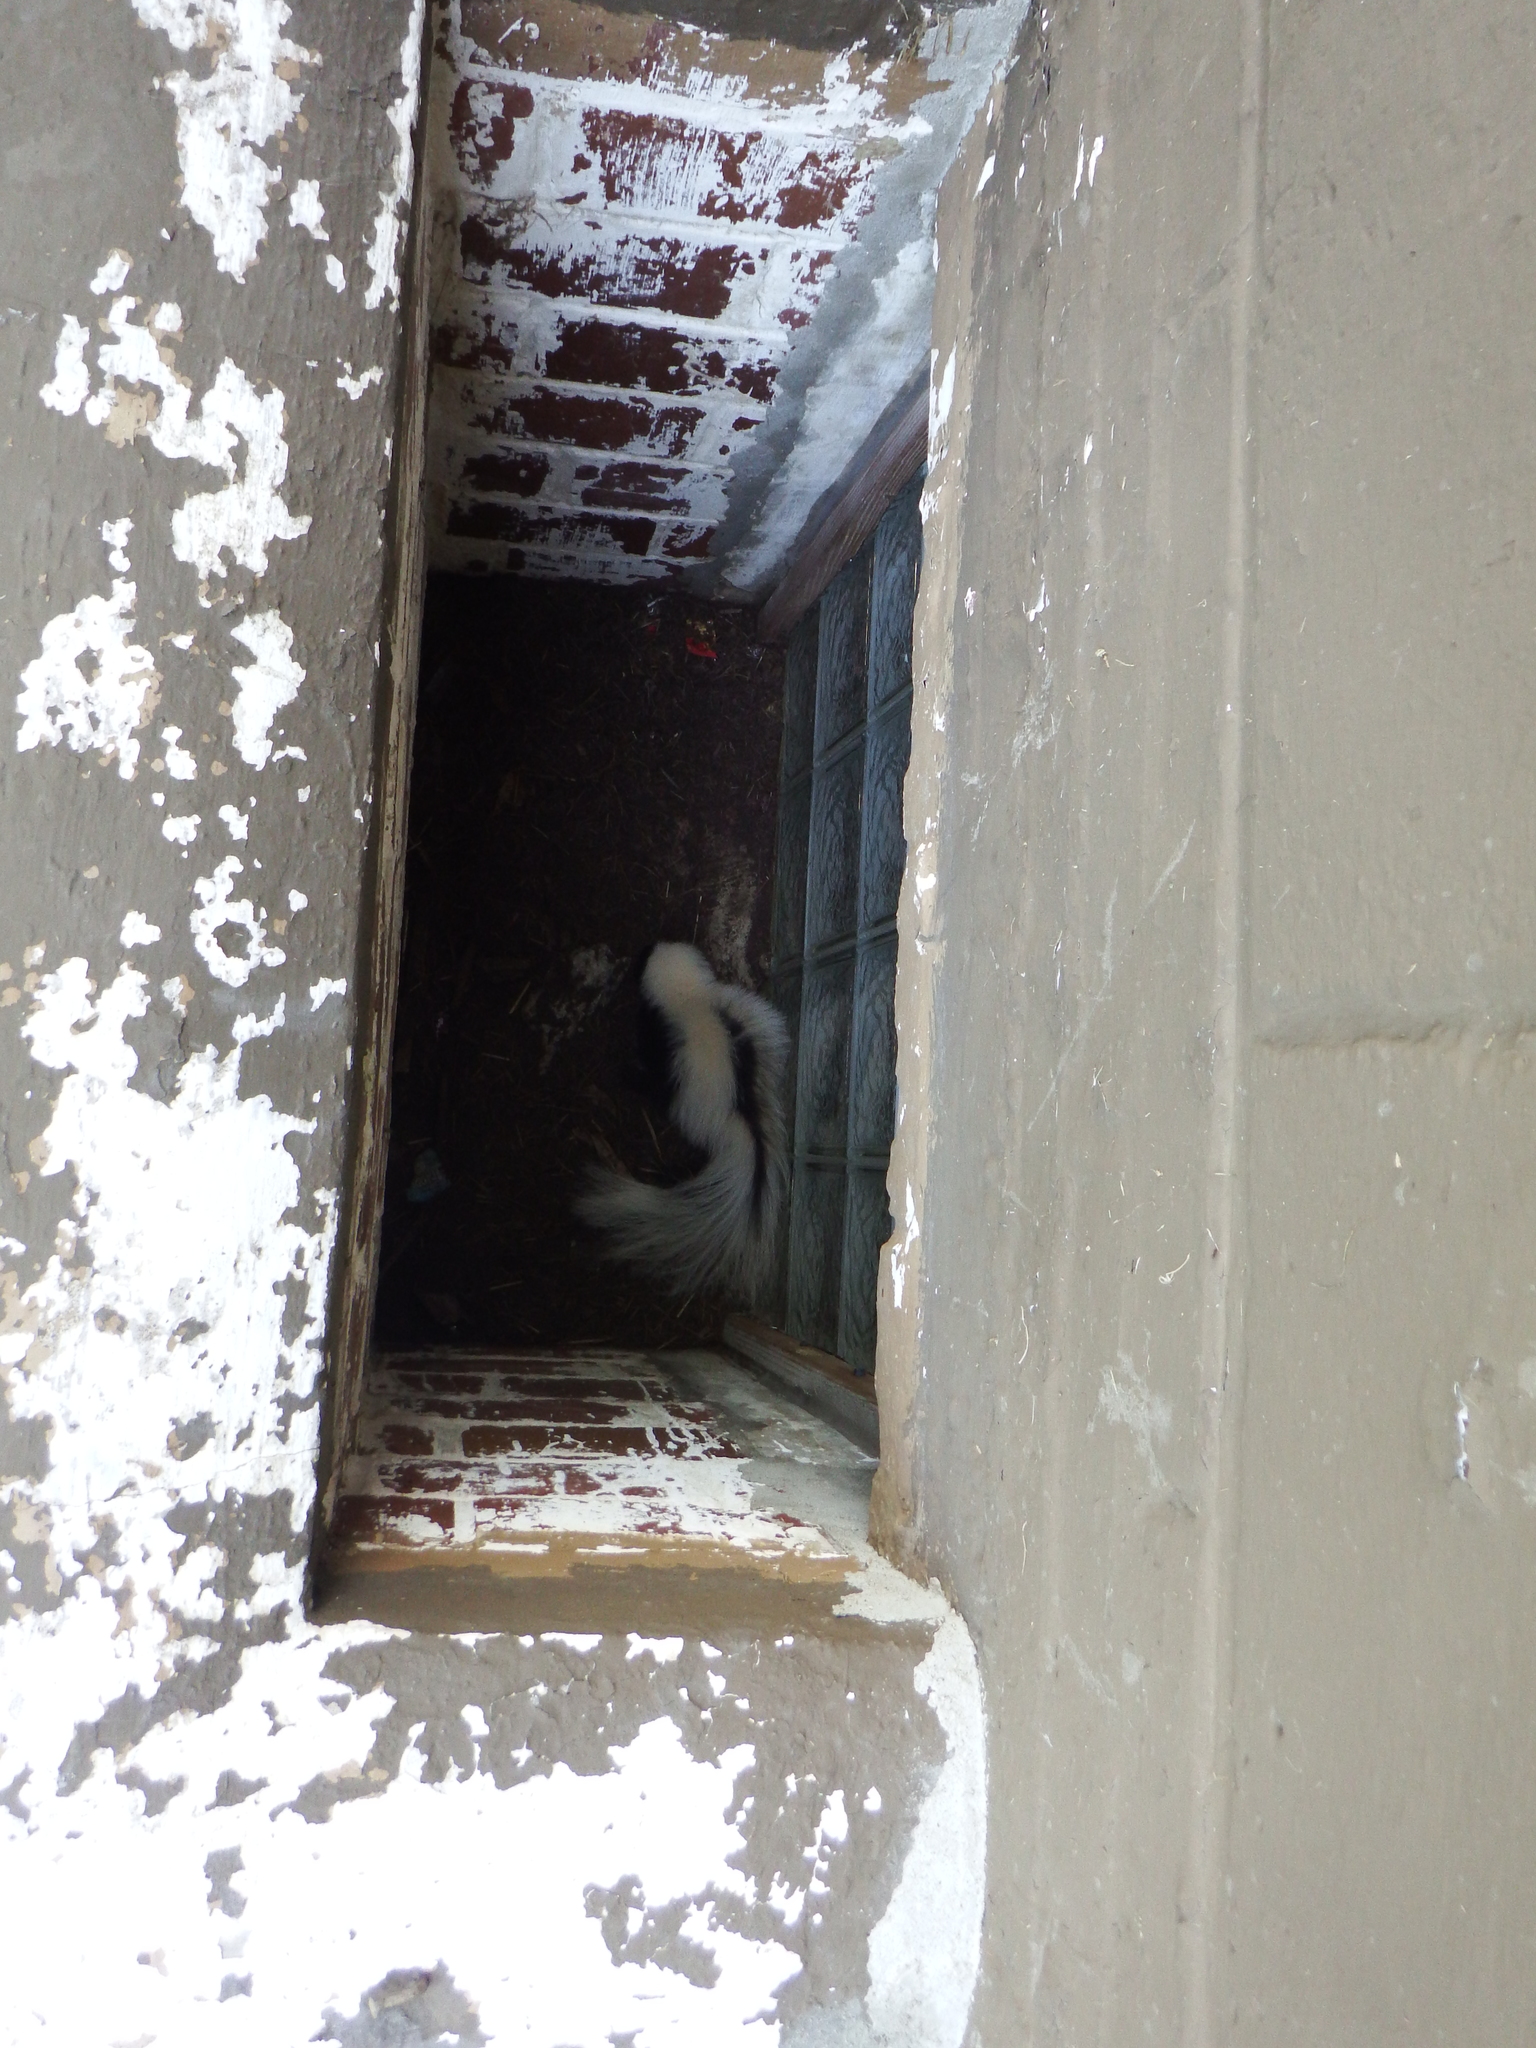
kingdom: Animalia
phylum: Chordata
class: Mammalia
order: Carnivora
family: Mephitidae
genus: Mephitis
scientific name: Mephitis mephitis
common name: Striped skunk
